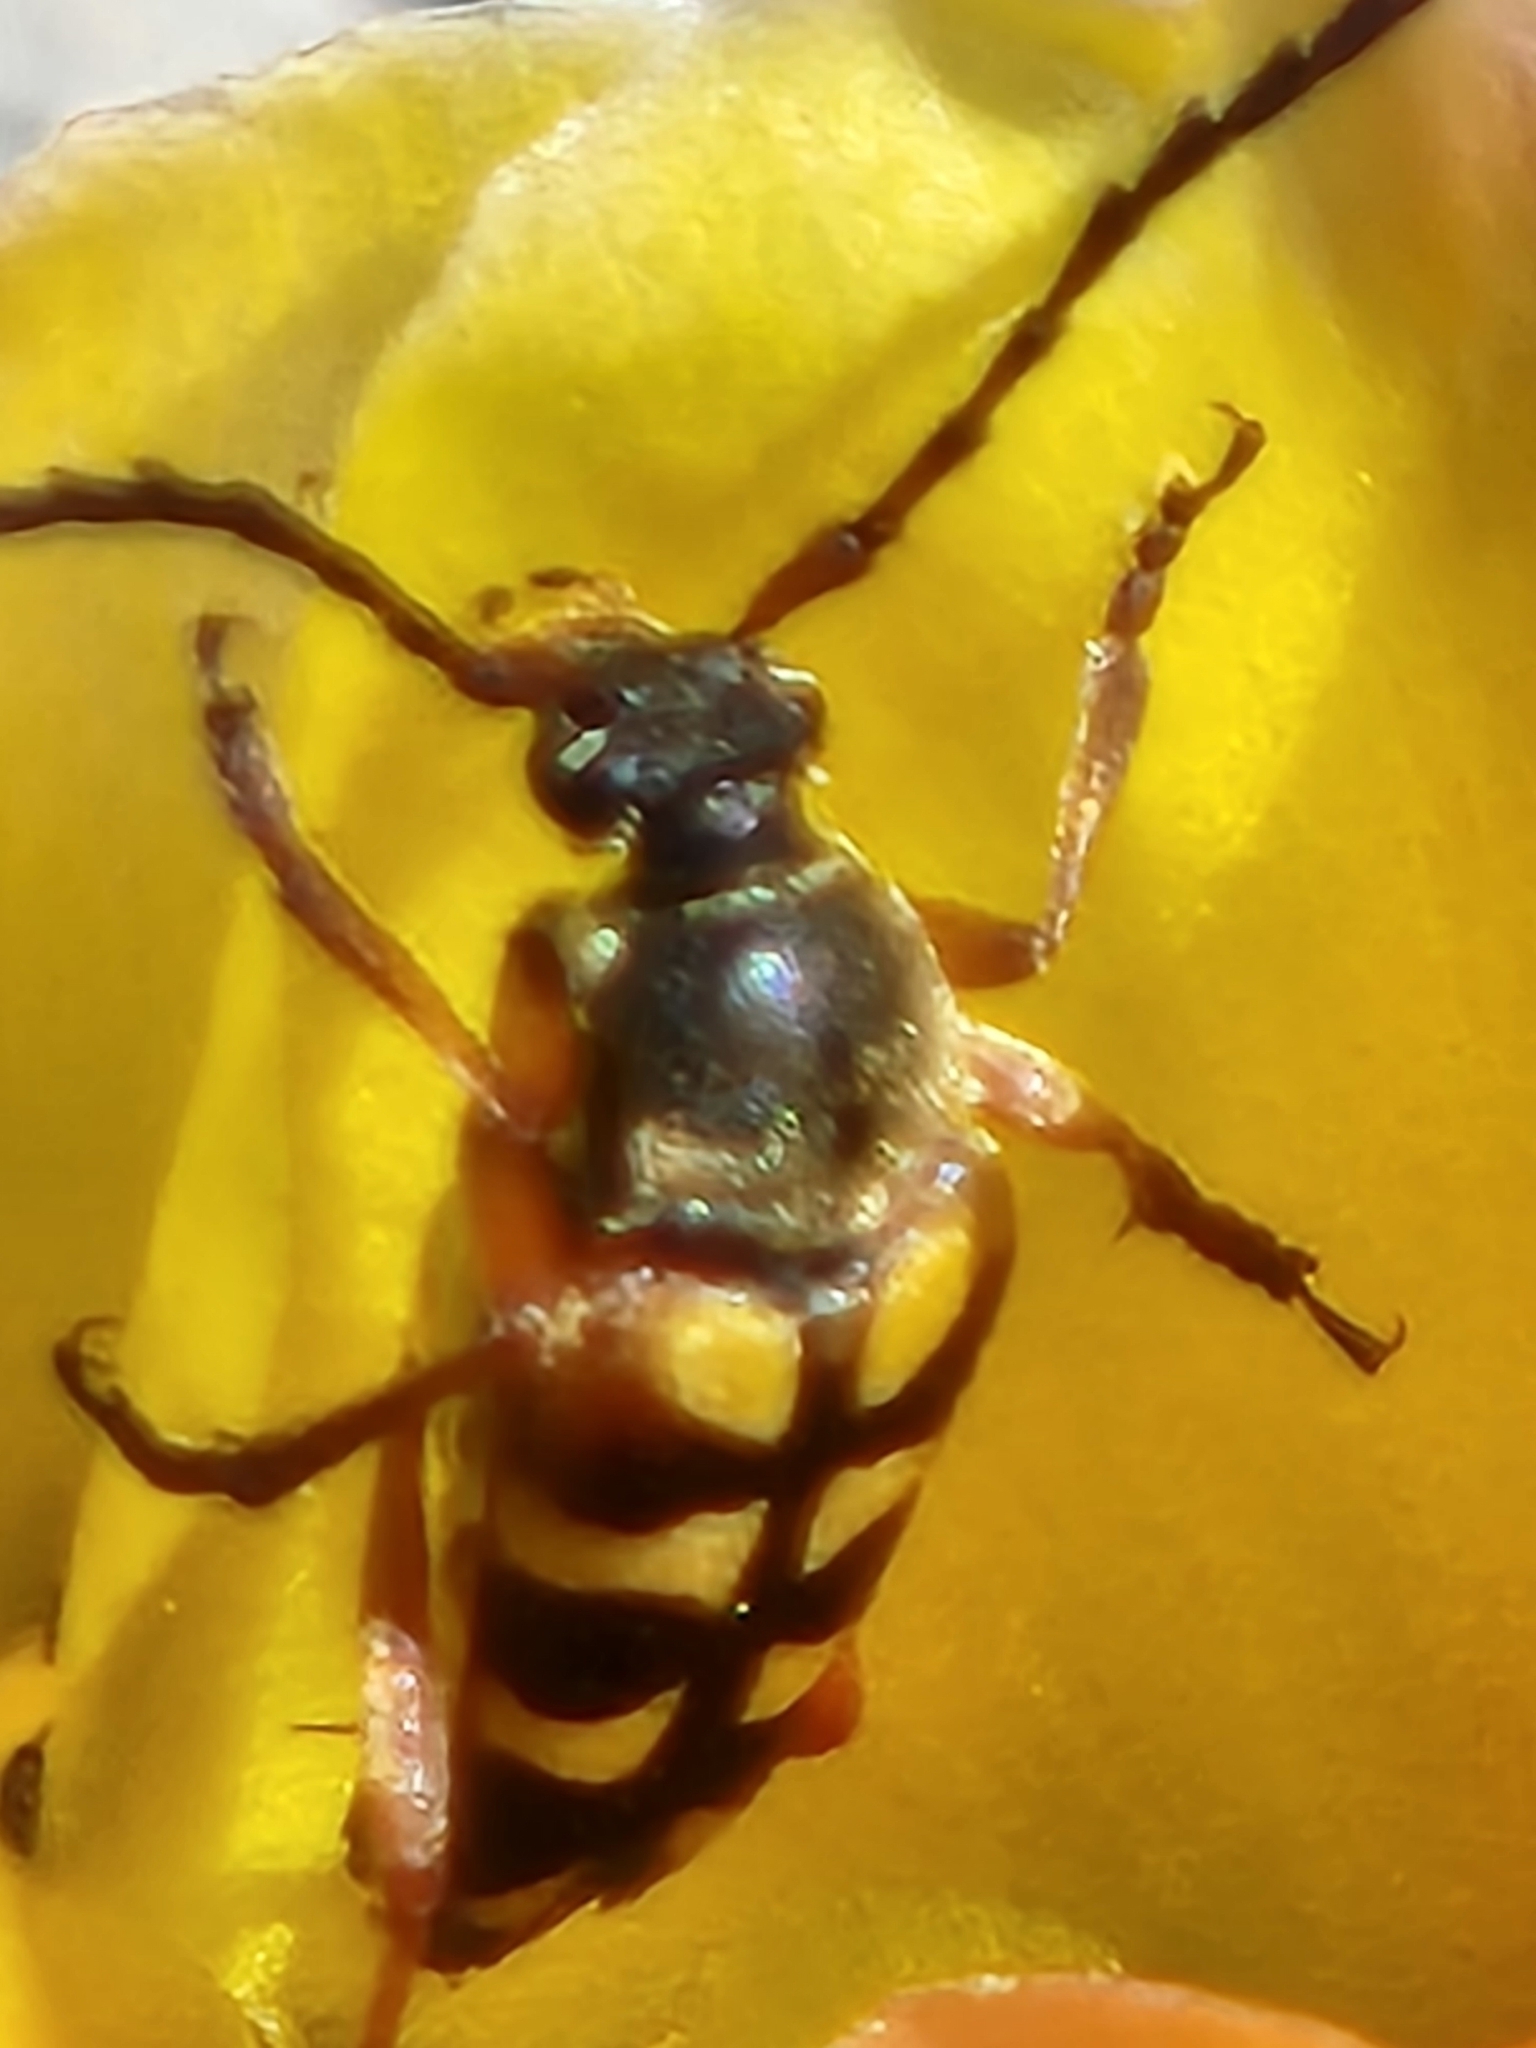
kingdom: Animalia
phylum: Arthropoda
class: Insecta
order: Coleoptera
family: Cerambycidae
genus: Typocerus
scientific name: Typocerus sinuatus
